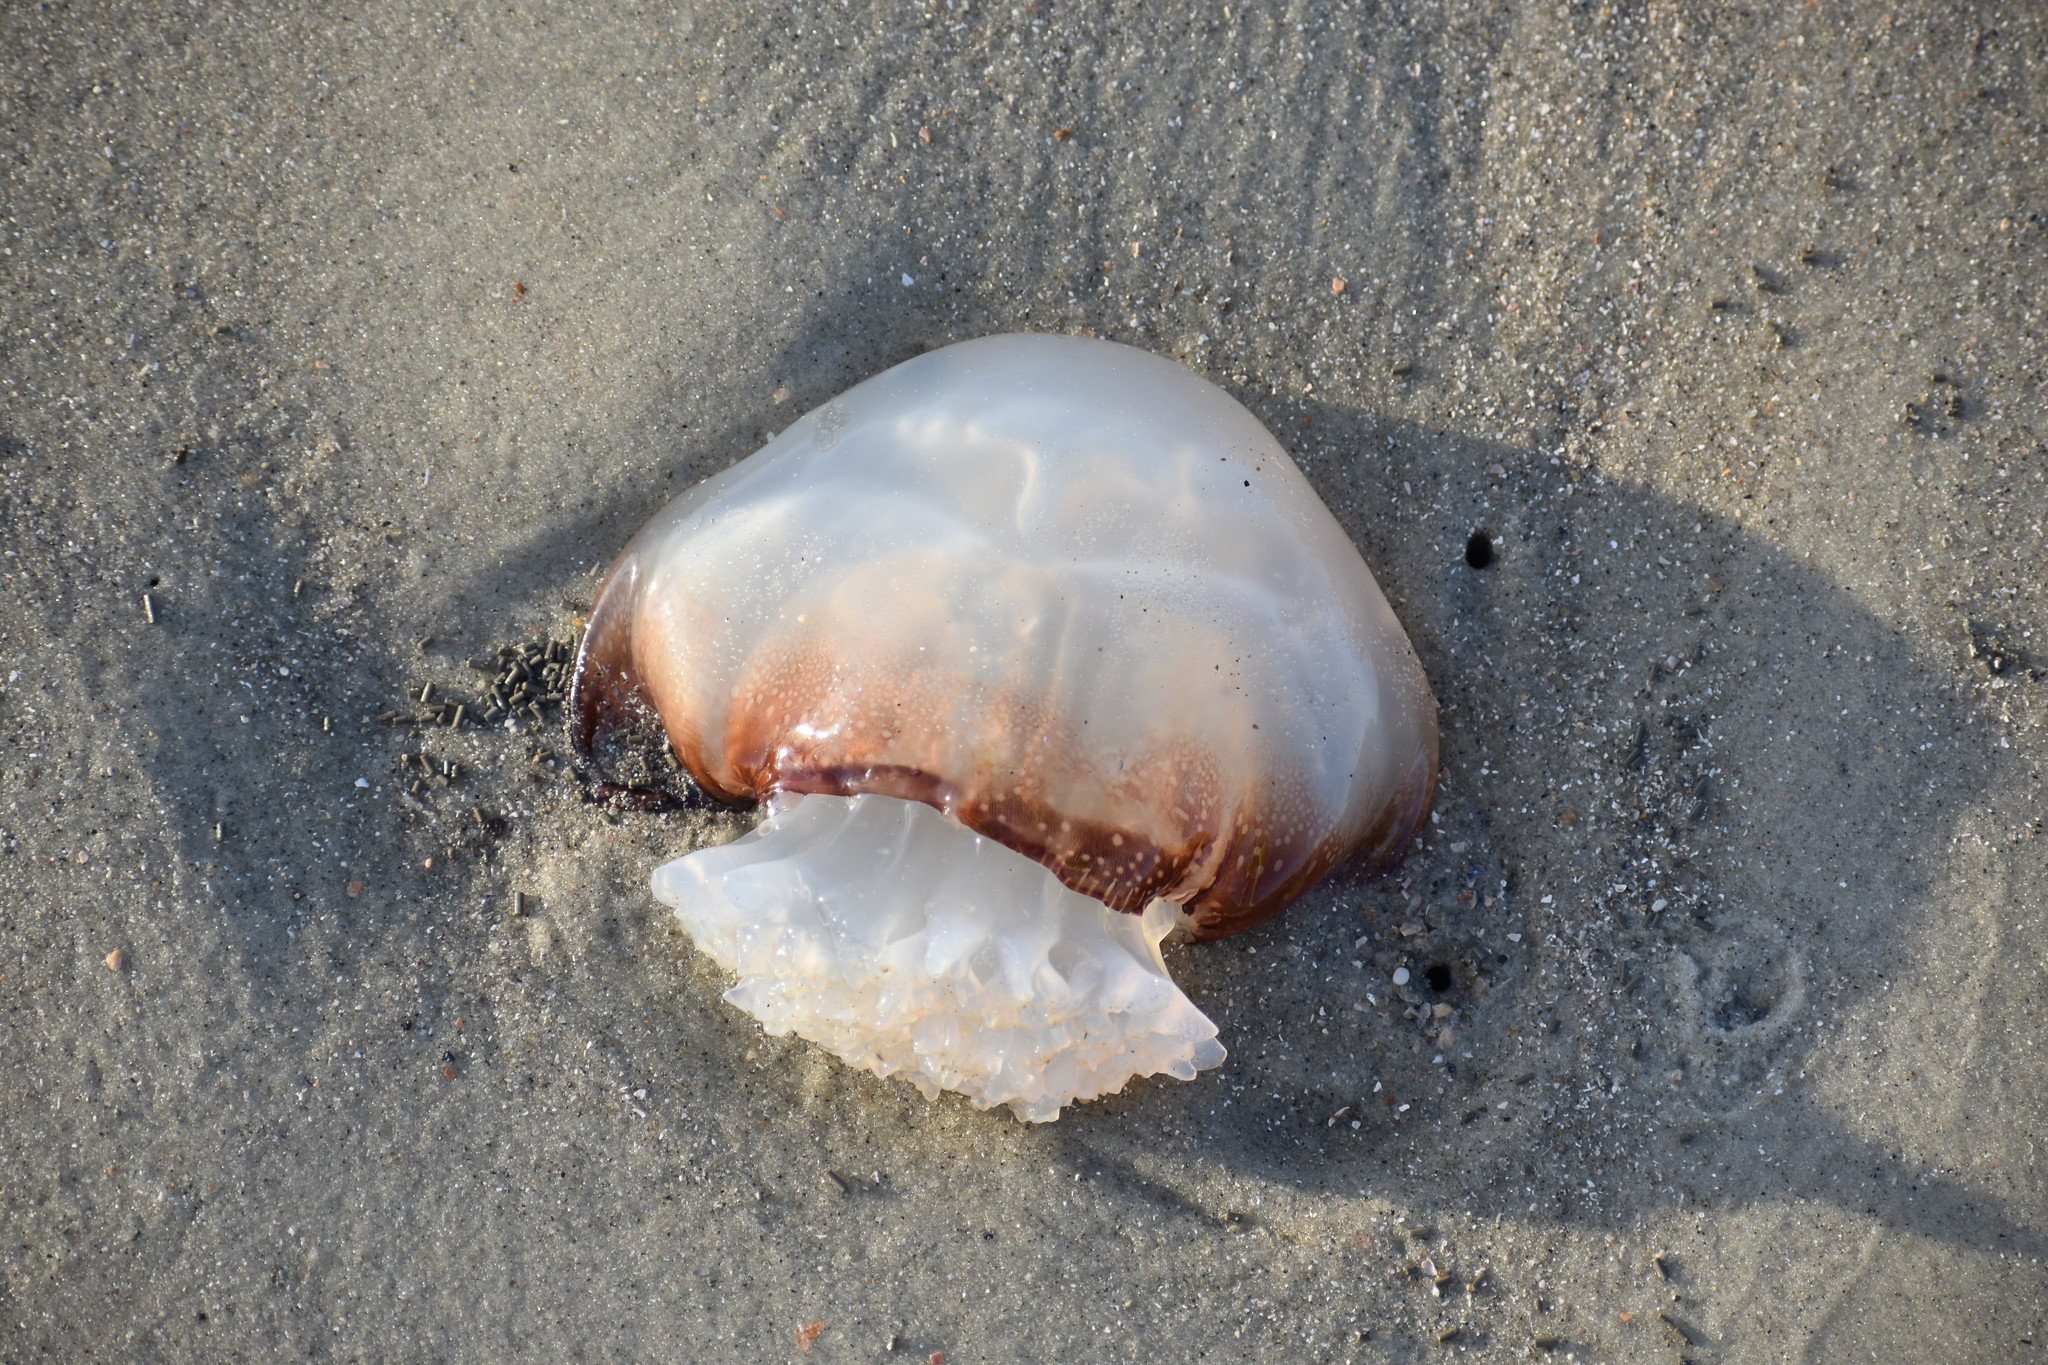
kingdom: Animalia
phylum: Cnidaria
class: Scyphozoa
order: Rhizostomeae
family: Stomolophidae
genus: Stomolophus
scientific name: Stomolophus meleagris
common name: Cabbagehead
